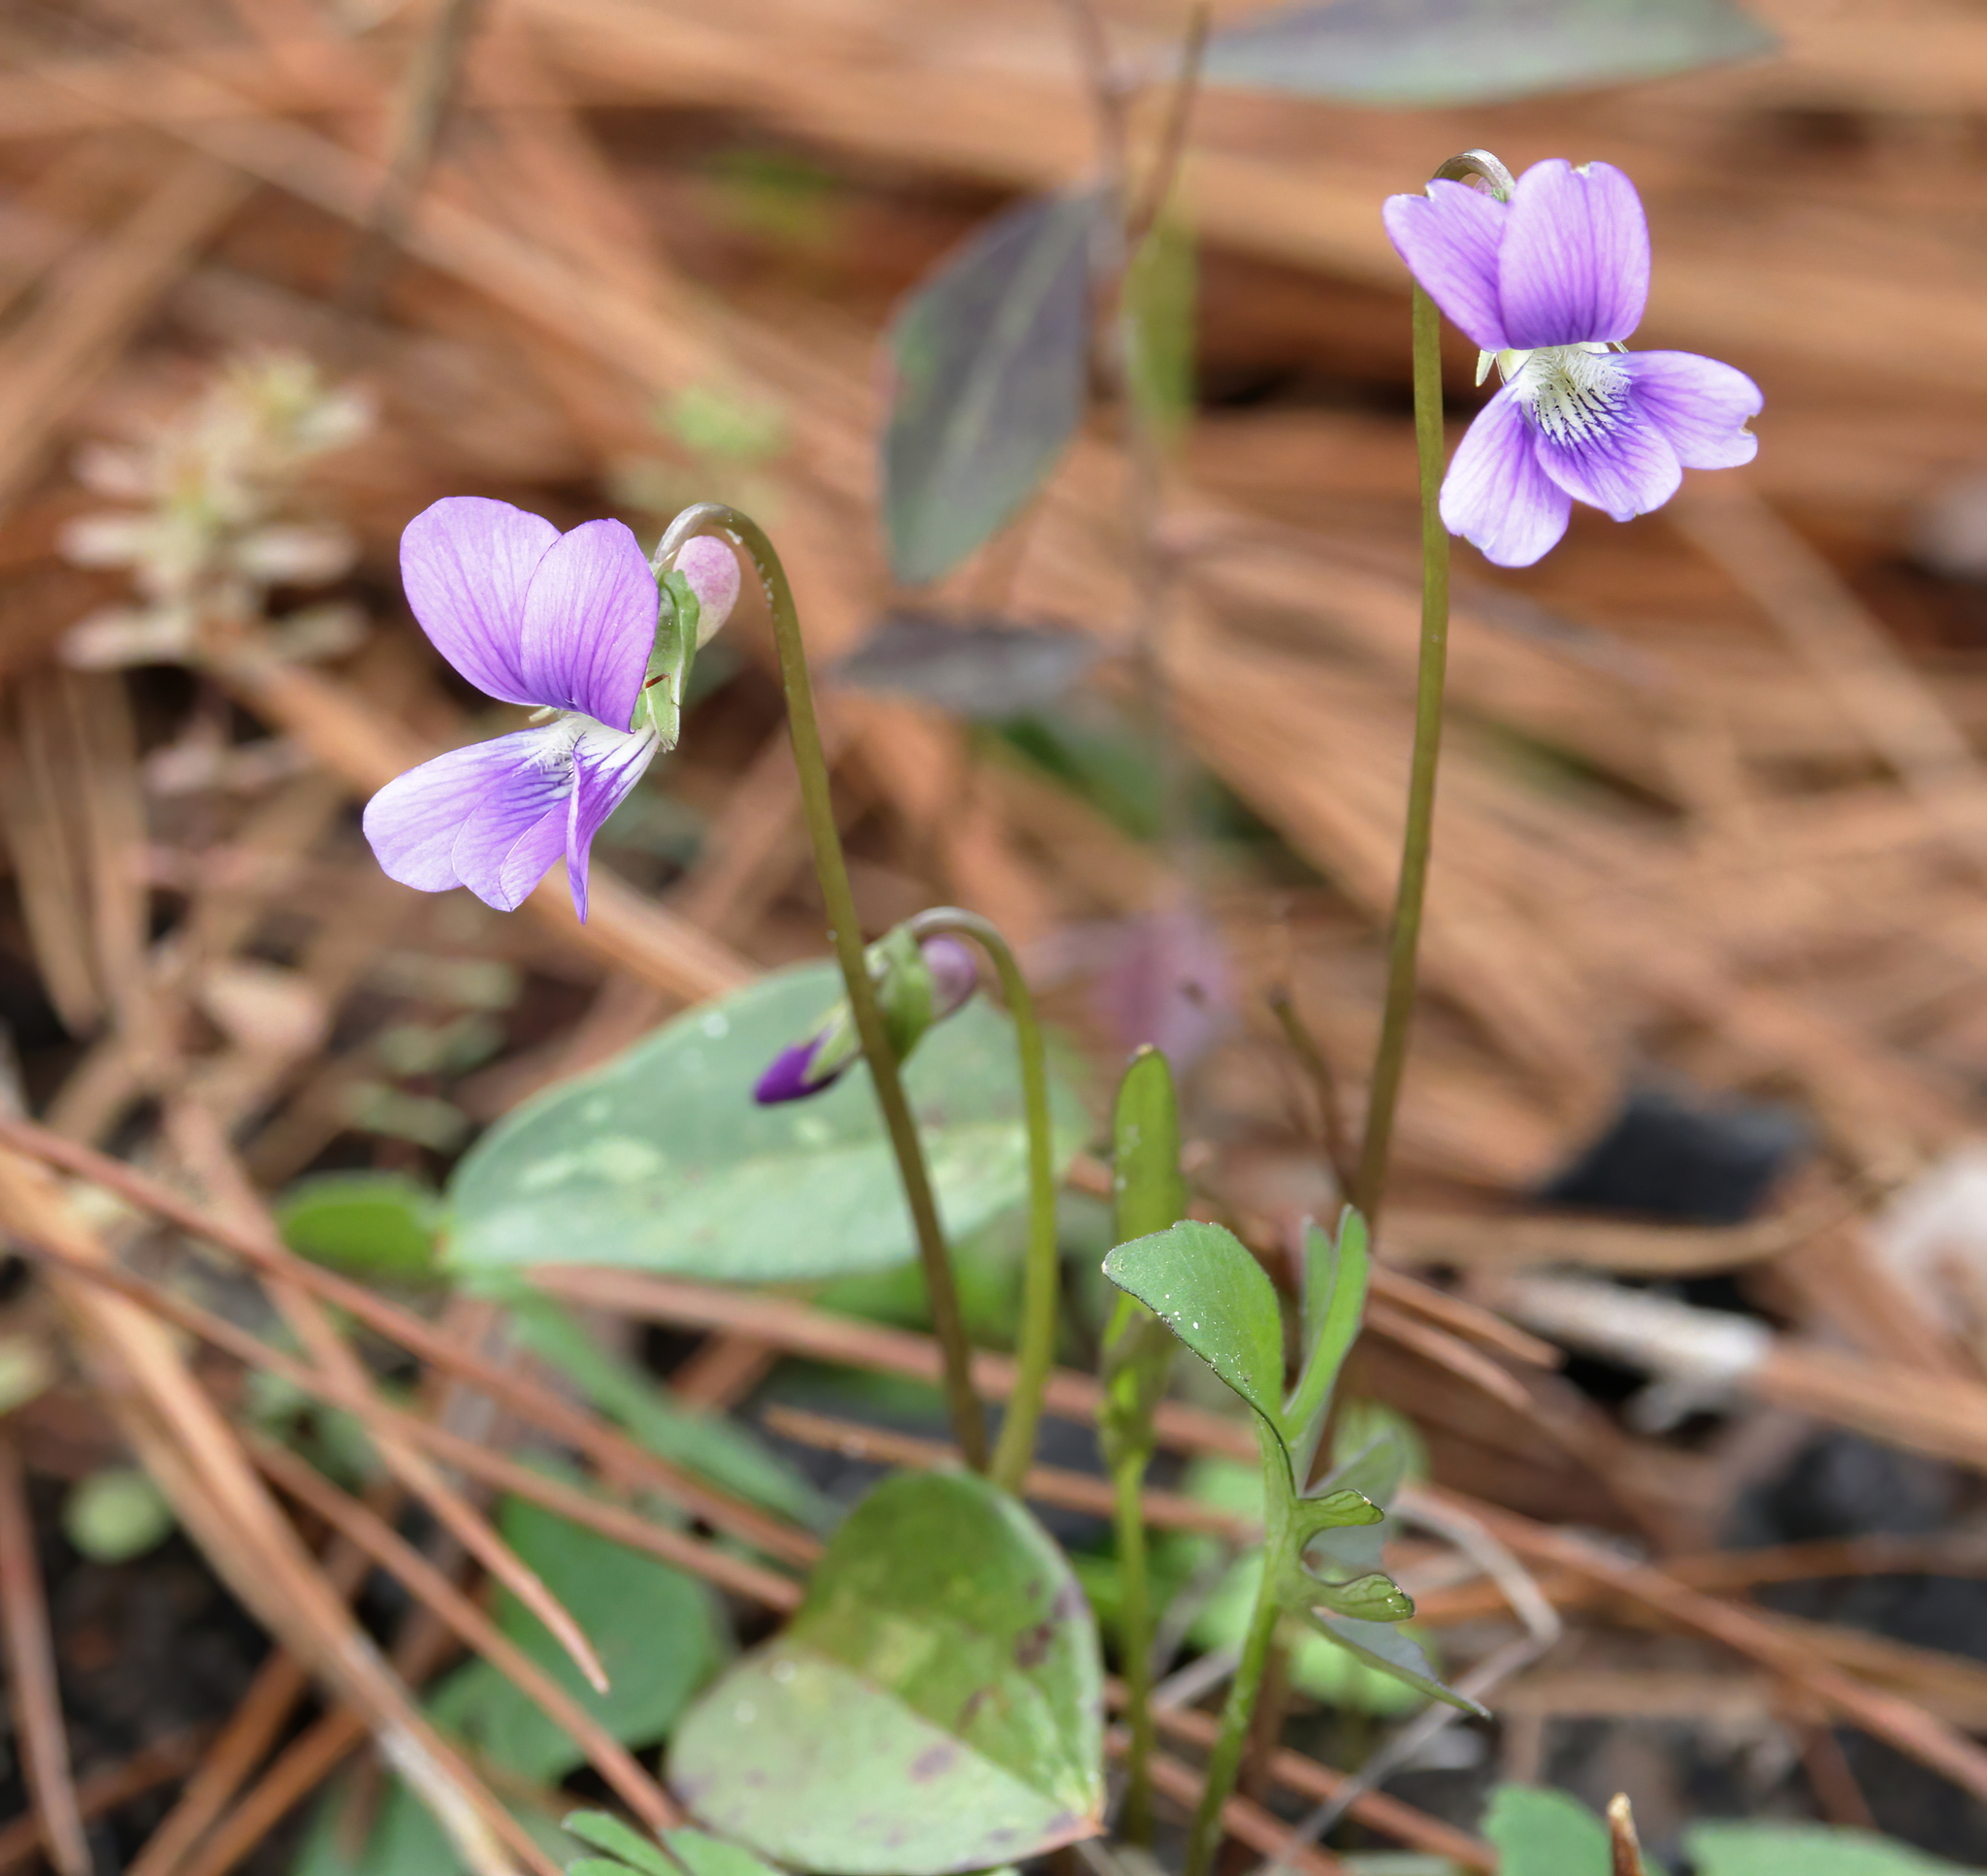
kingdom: Plantae
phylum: Tracheophyta
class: Magnoliopsida
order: Malpighiales
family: Violaceae
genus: Viola
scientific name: Viola septemloba
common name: Southern coast violet
